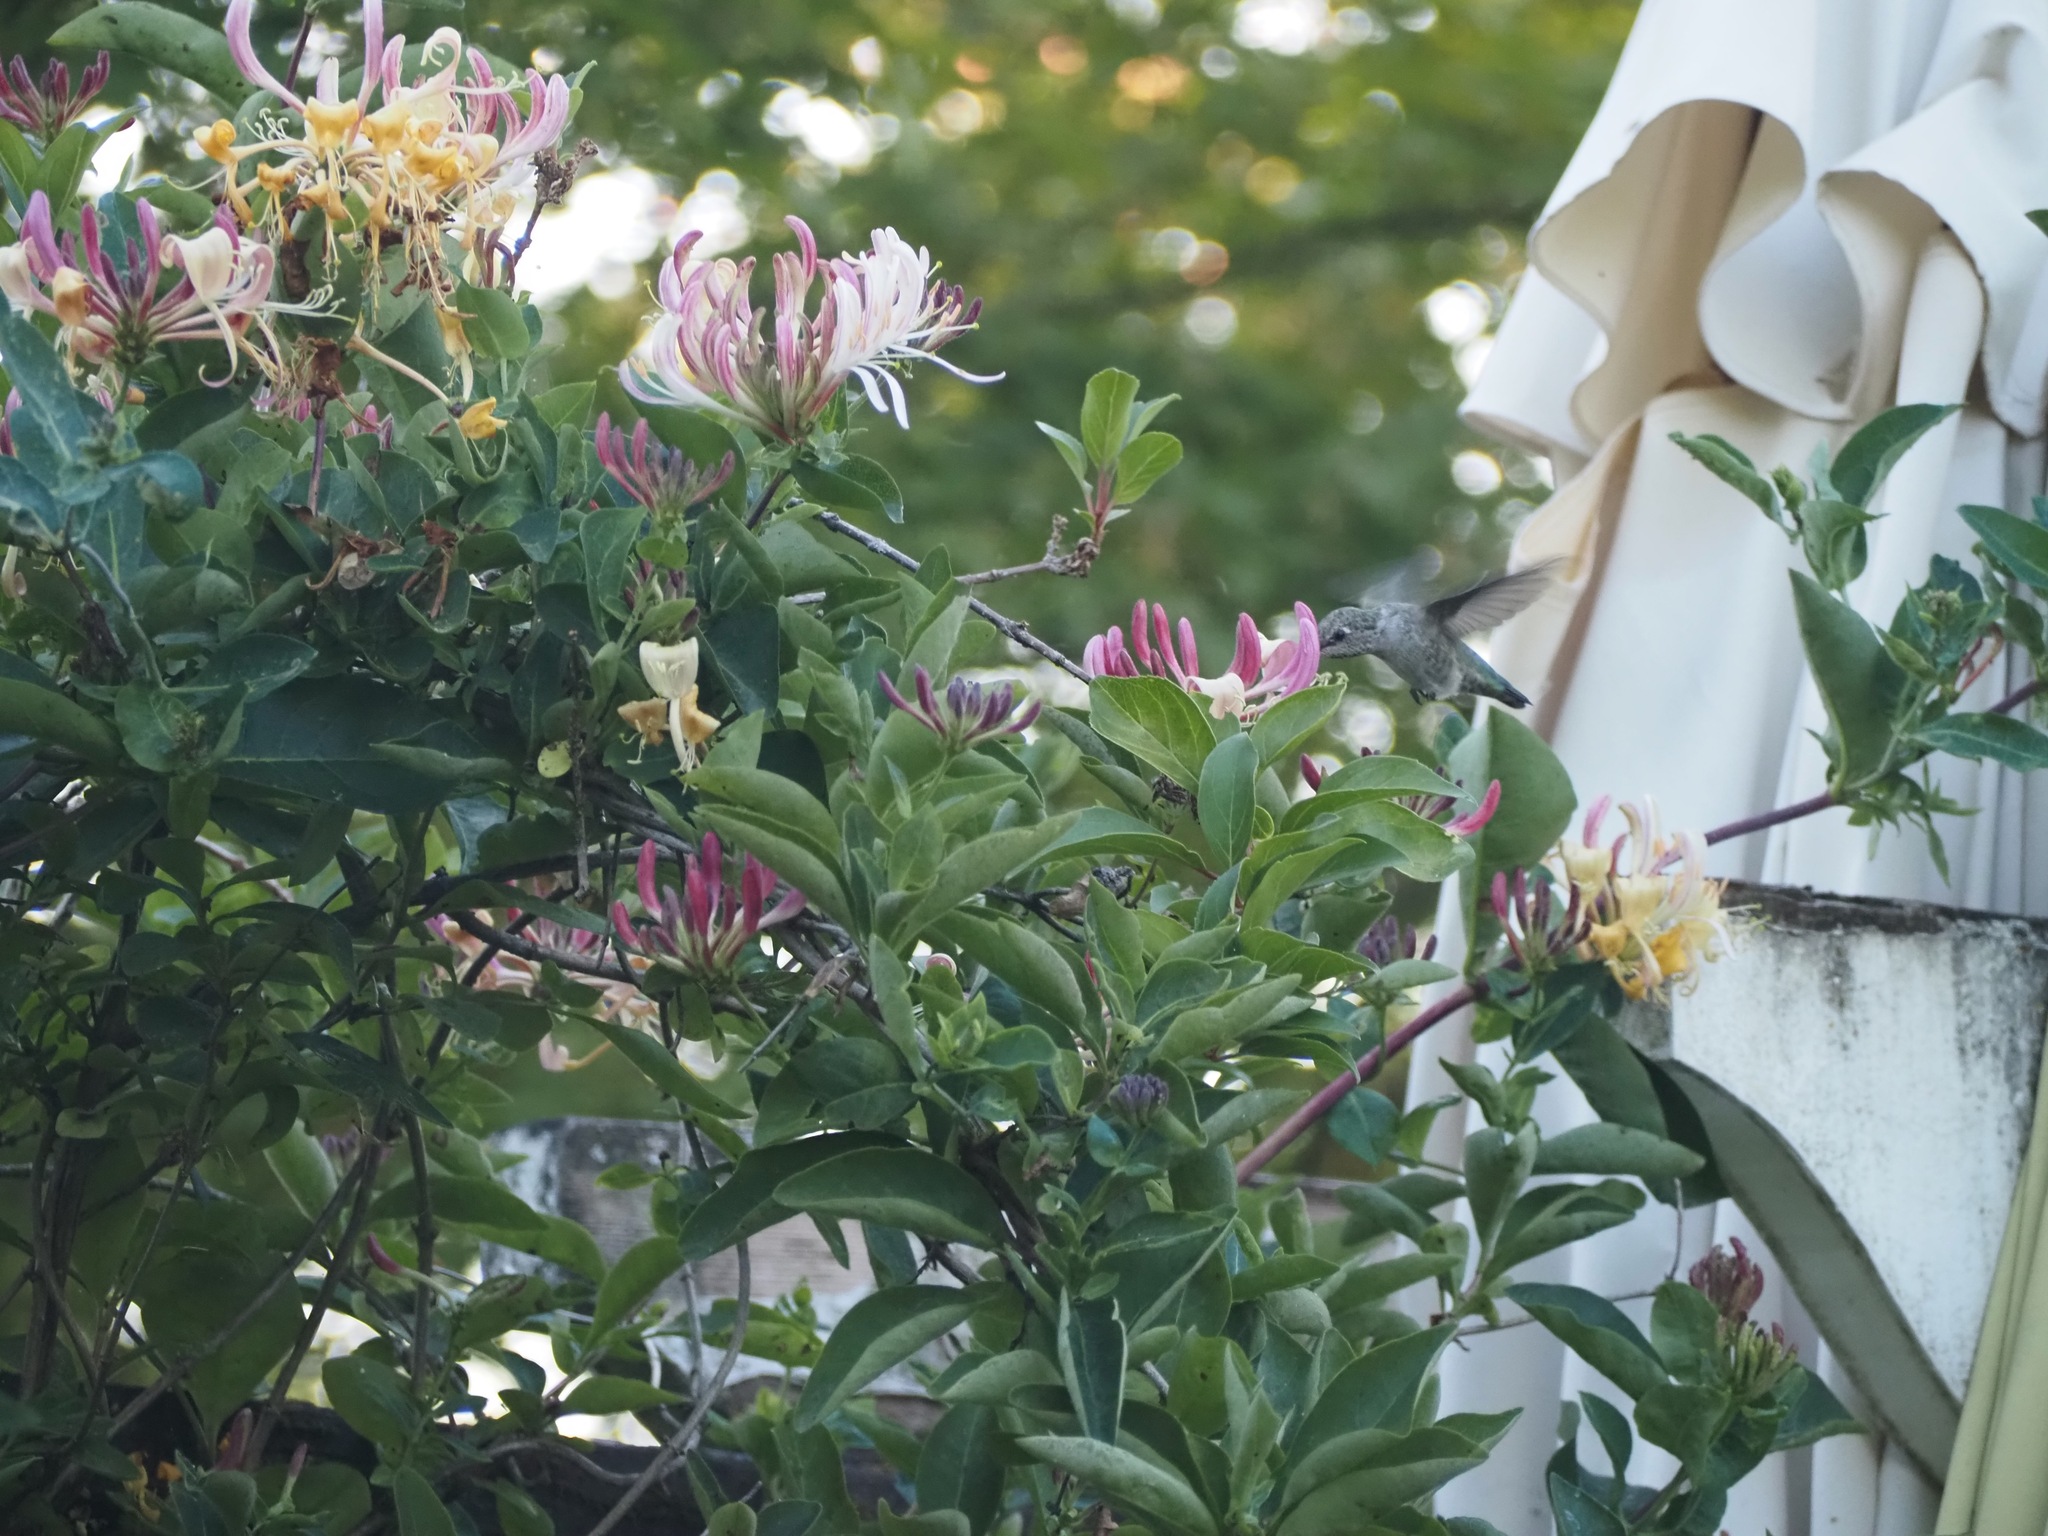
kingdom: Animalia
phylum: Chordata
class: Aves
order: Apodiformes
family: Trochilidae
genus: Calypte
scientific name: Calypte anna
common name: Anna's hummingbird
